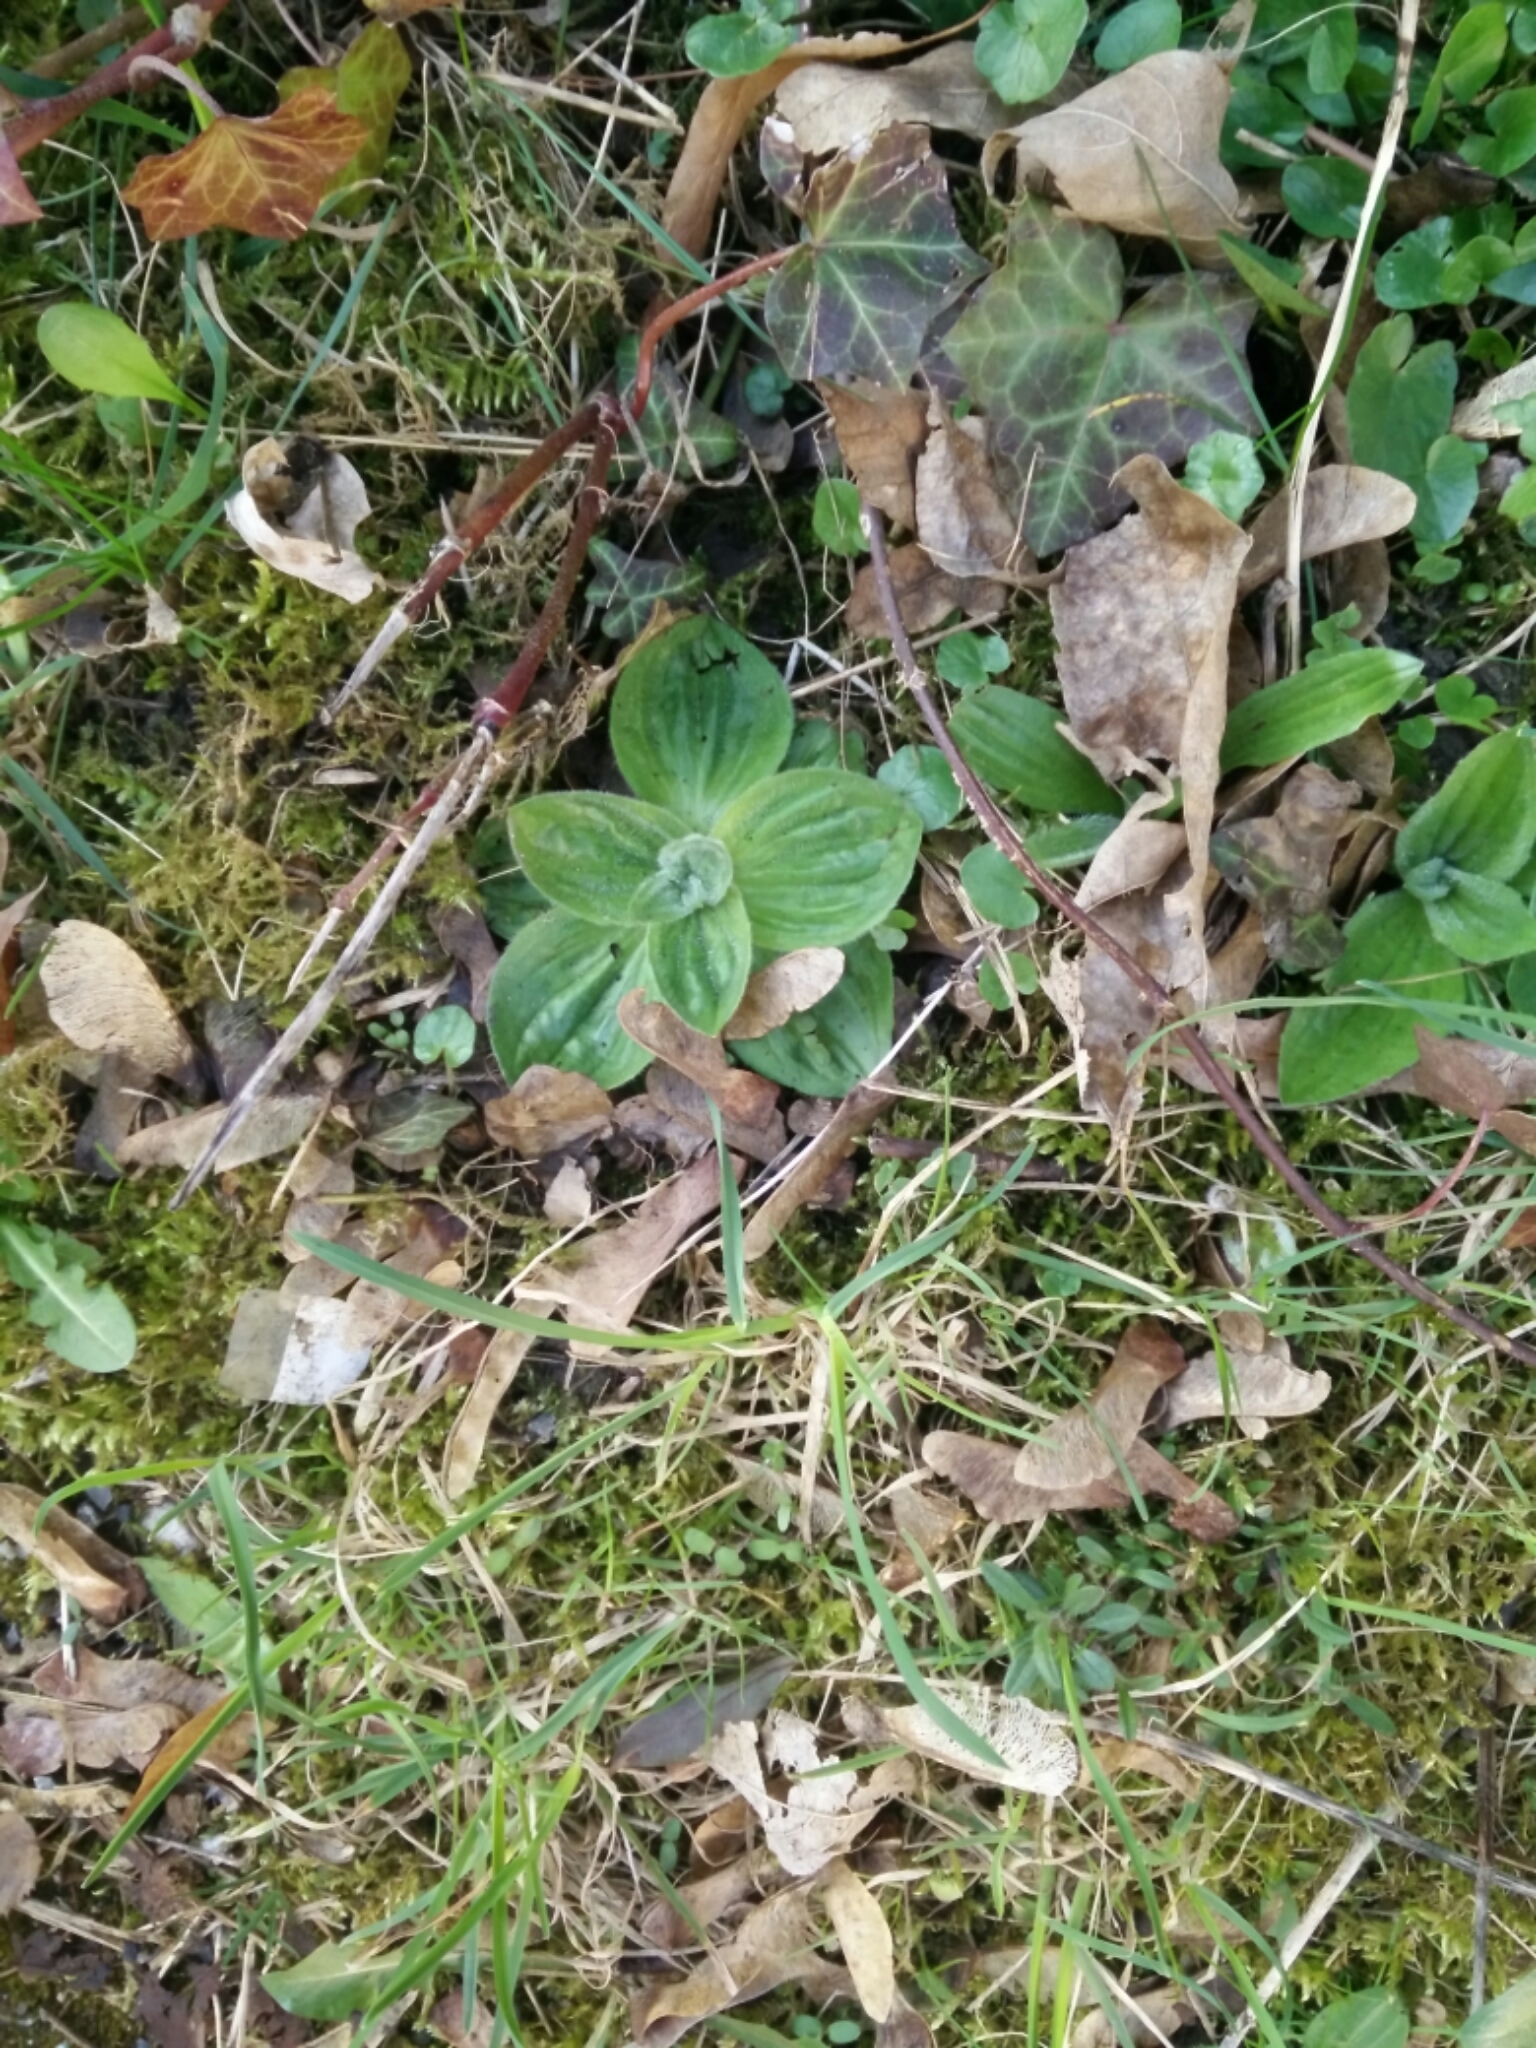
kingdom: Plantae
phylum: Tracheophyta
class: Magnoliopsida
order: Lamiales
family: Plantaginaceae
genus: Plantago
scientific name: Plantago media
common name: Hoary plantain
